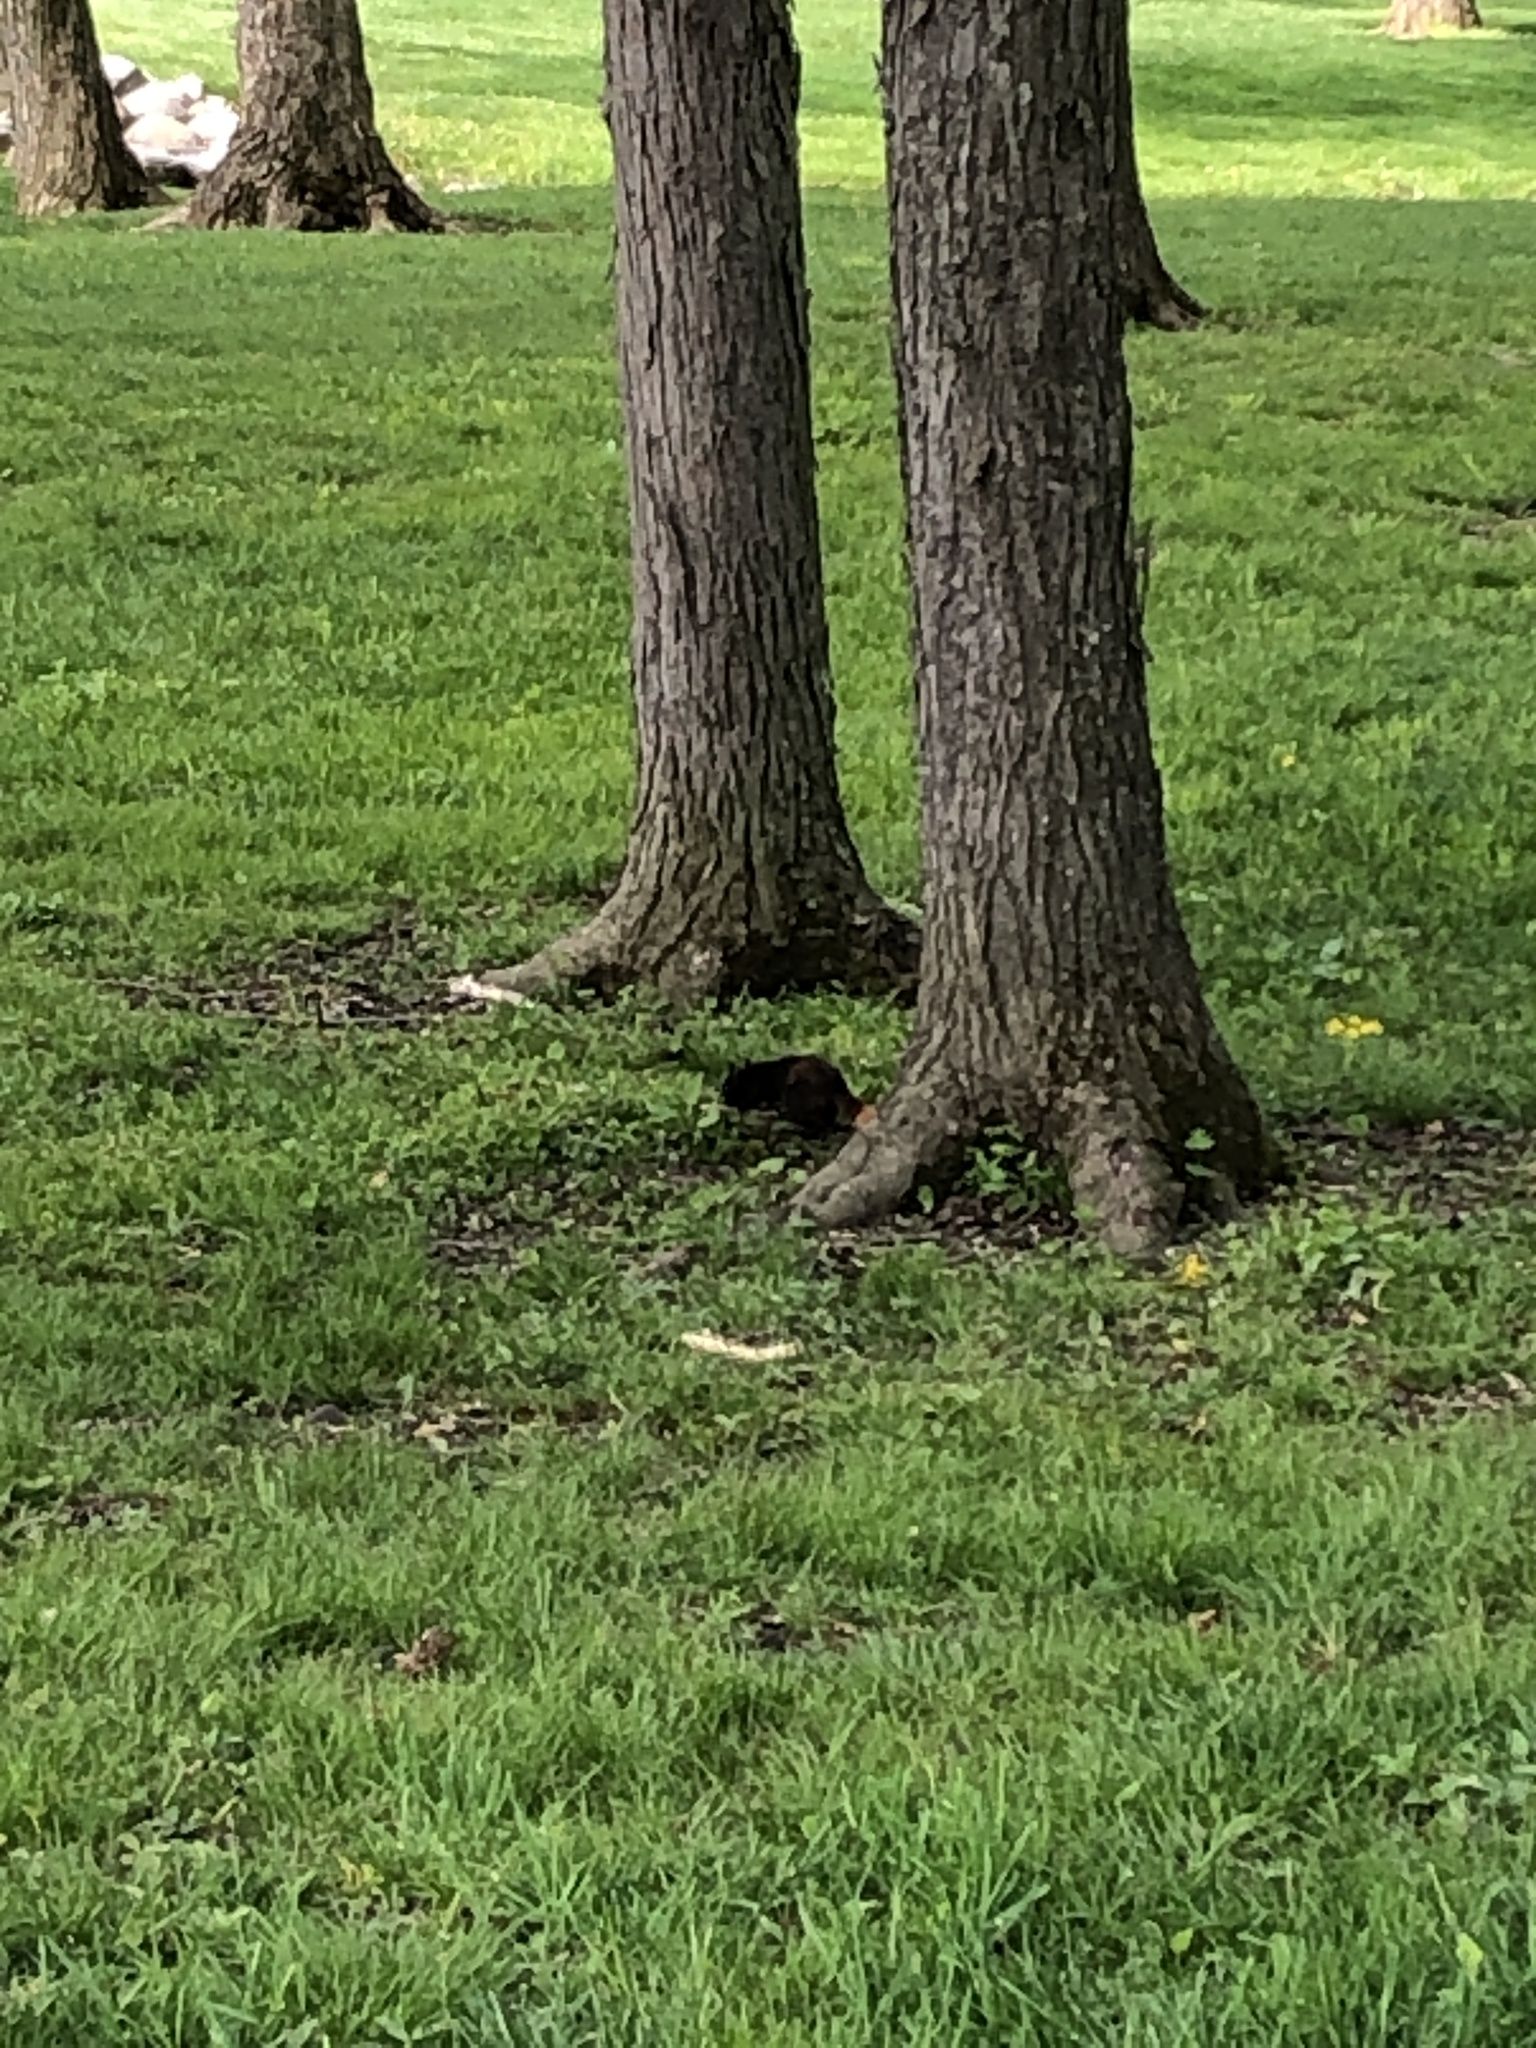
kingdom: Animalia
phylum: Chordata
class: Mammalia
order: Rodentia
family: Sciuridae
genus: Sciurus
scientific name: Sciurus niger
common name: Fox squirrel
